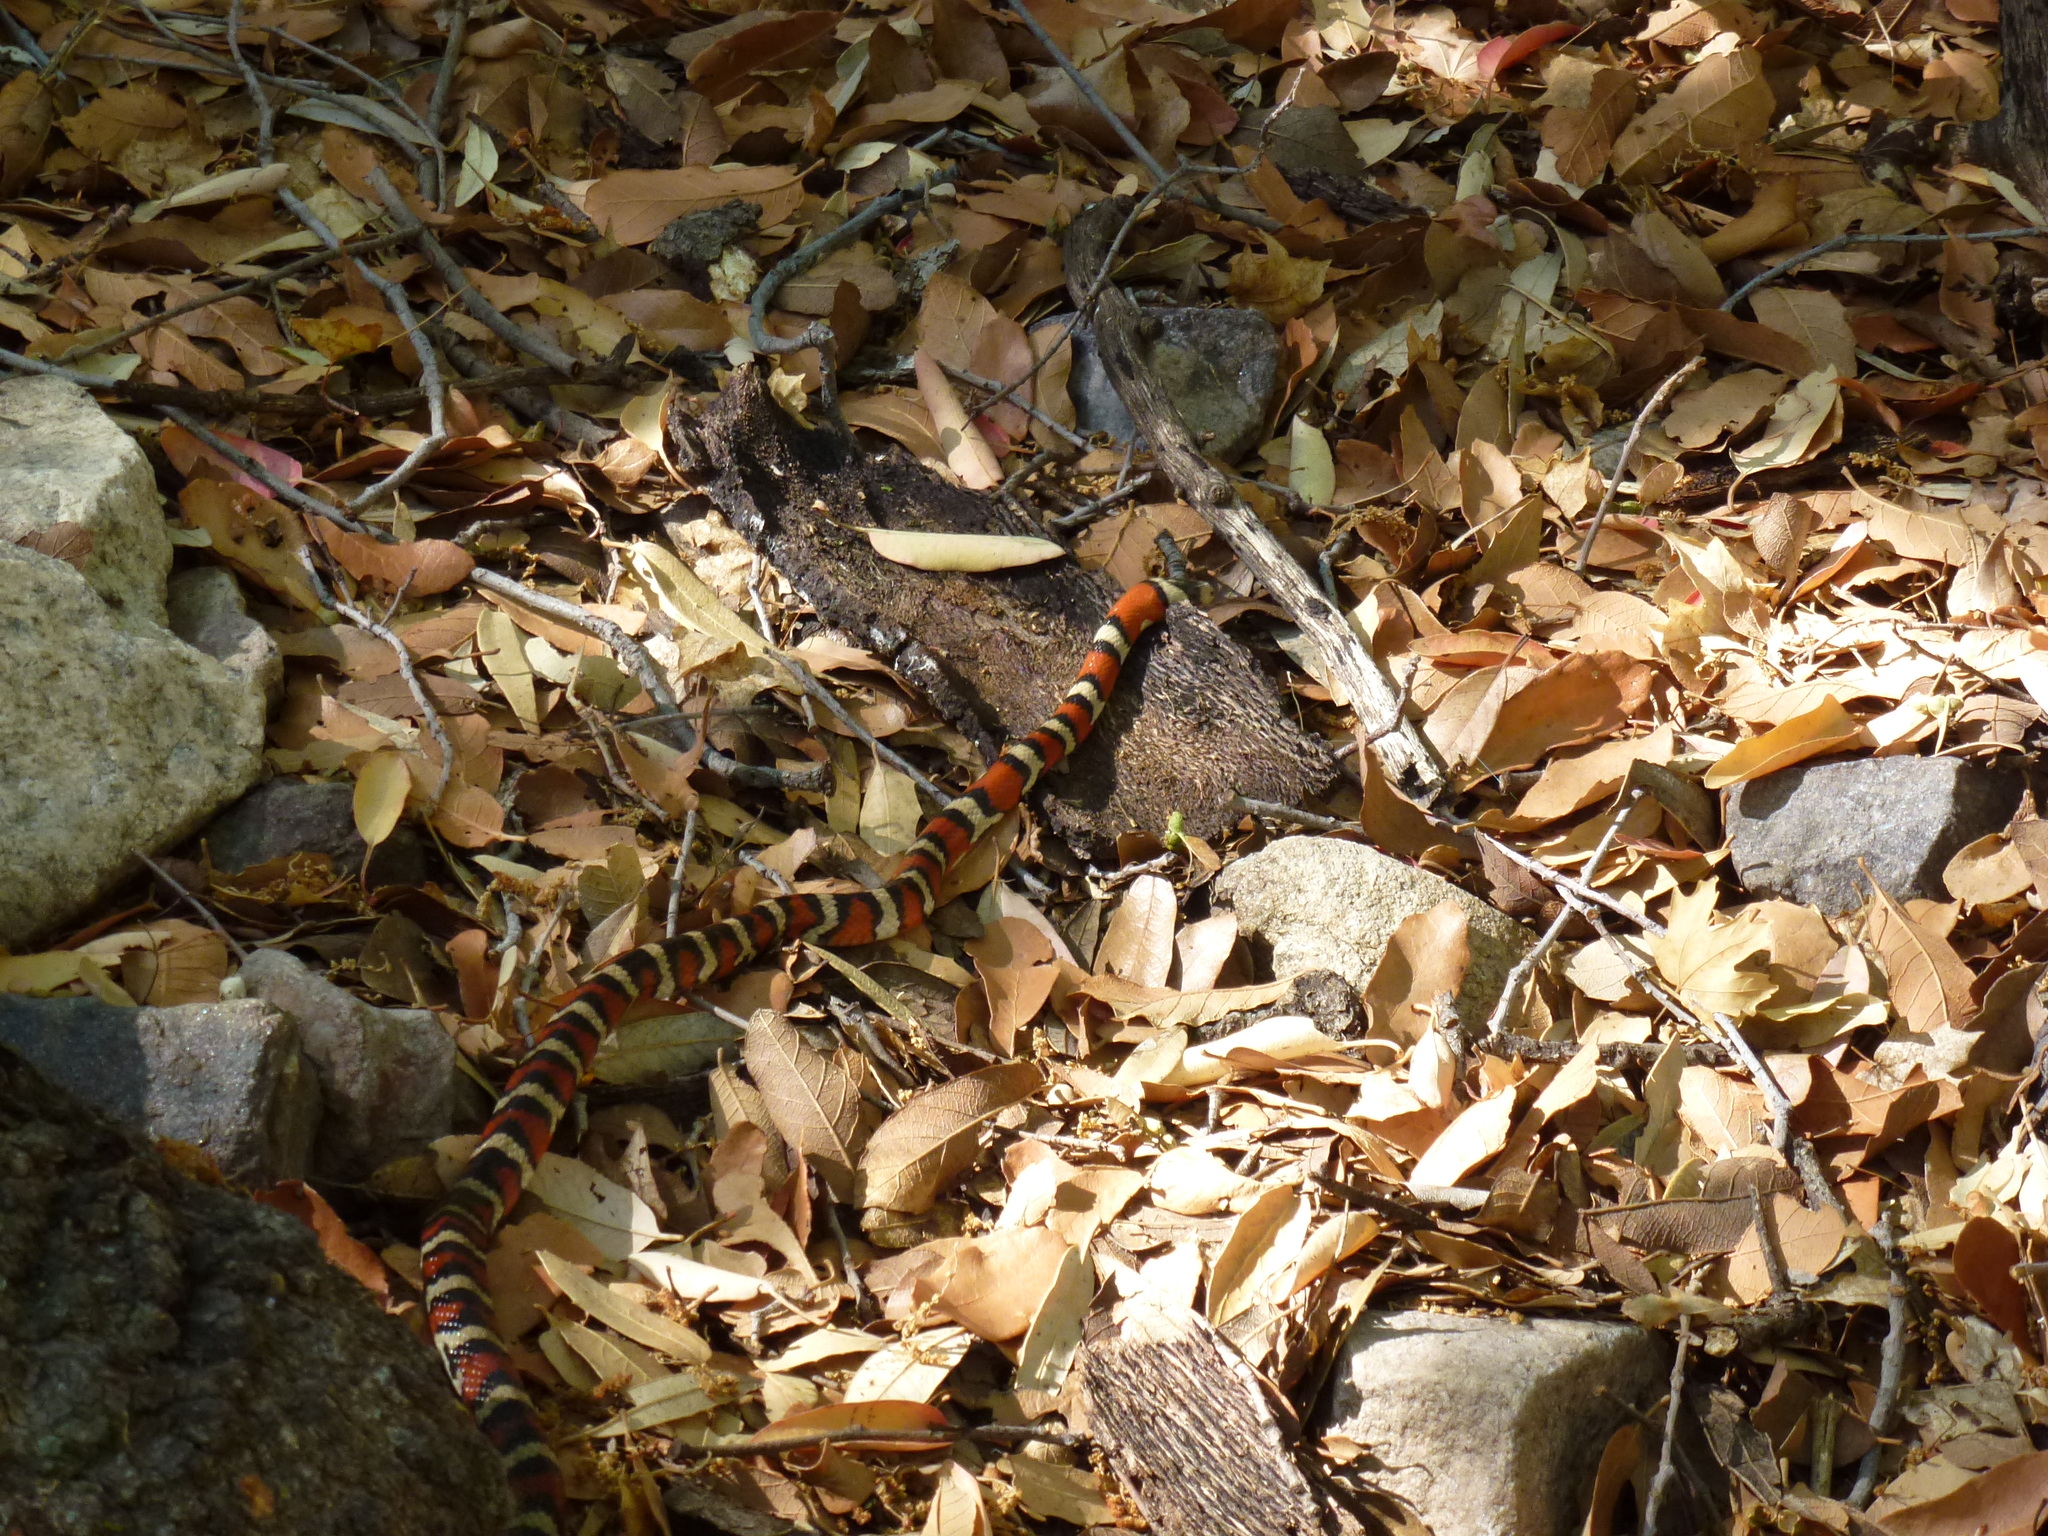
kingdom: Animalia
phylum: Chordata
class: Squamata
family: Colubridae
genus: Lampropeltis
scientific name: Lampropeltis knoblochi
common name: Chihuahuan mountain kingsnake
